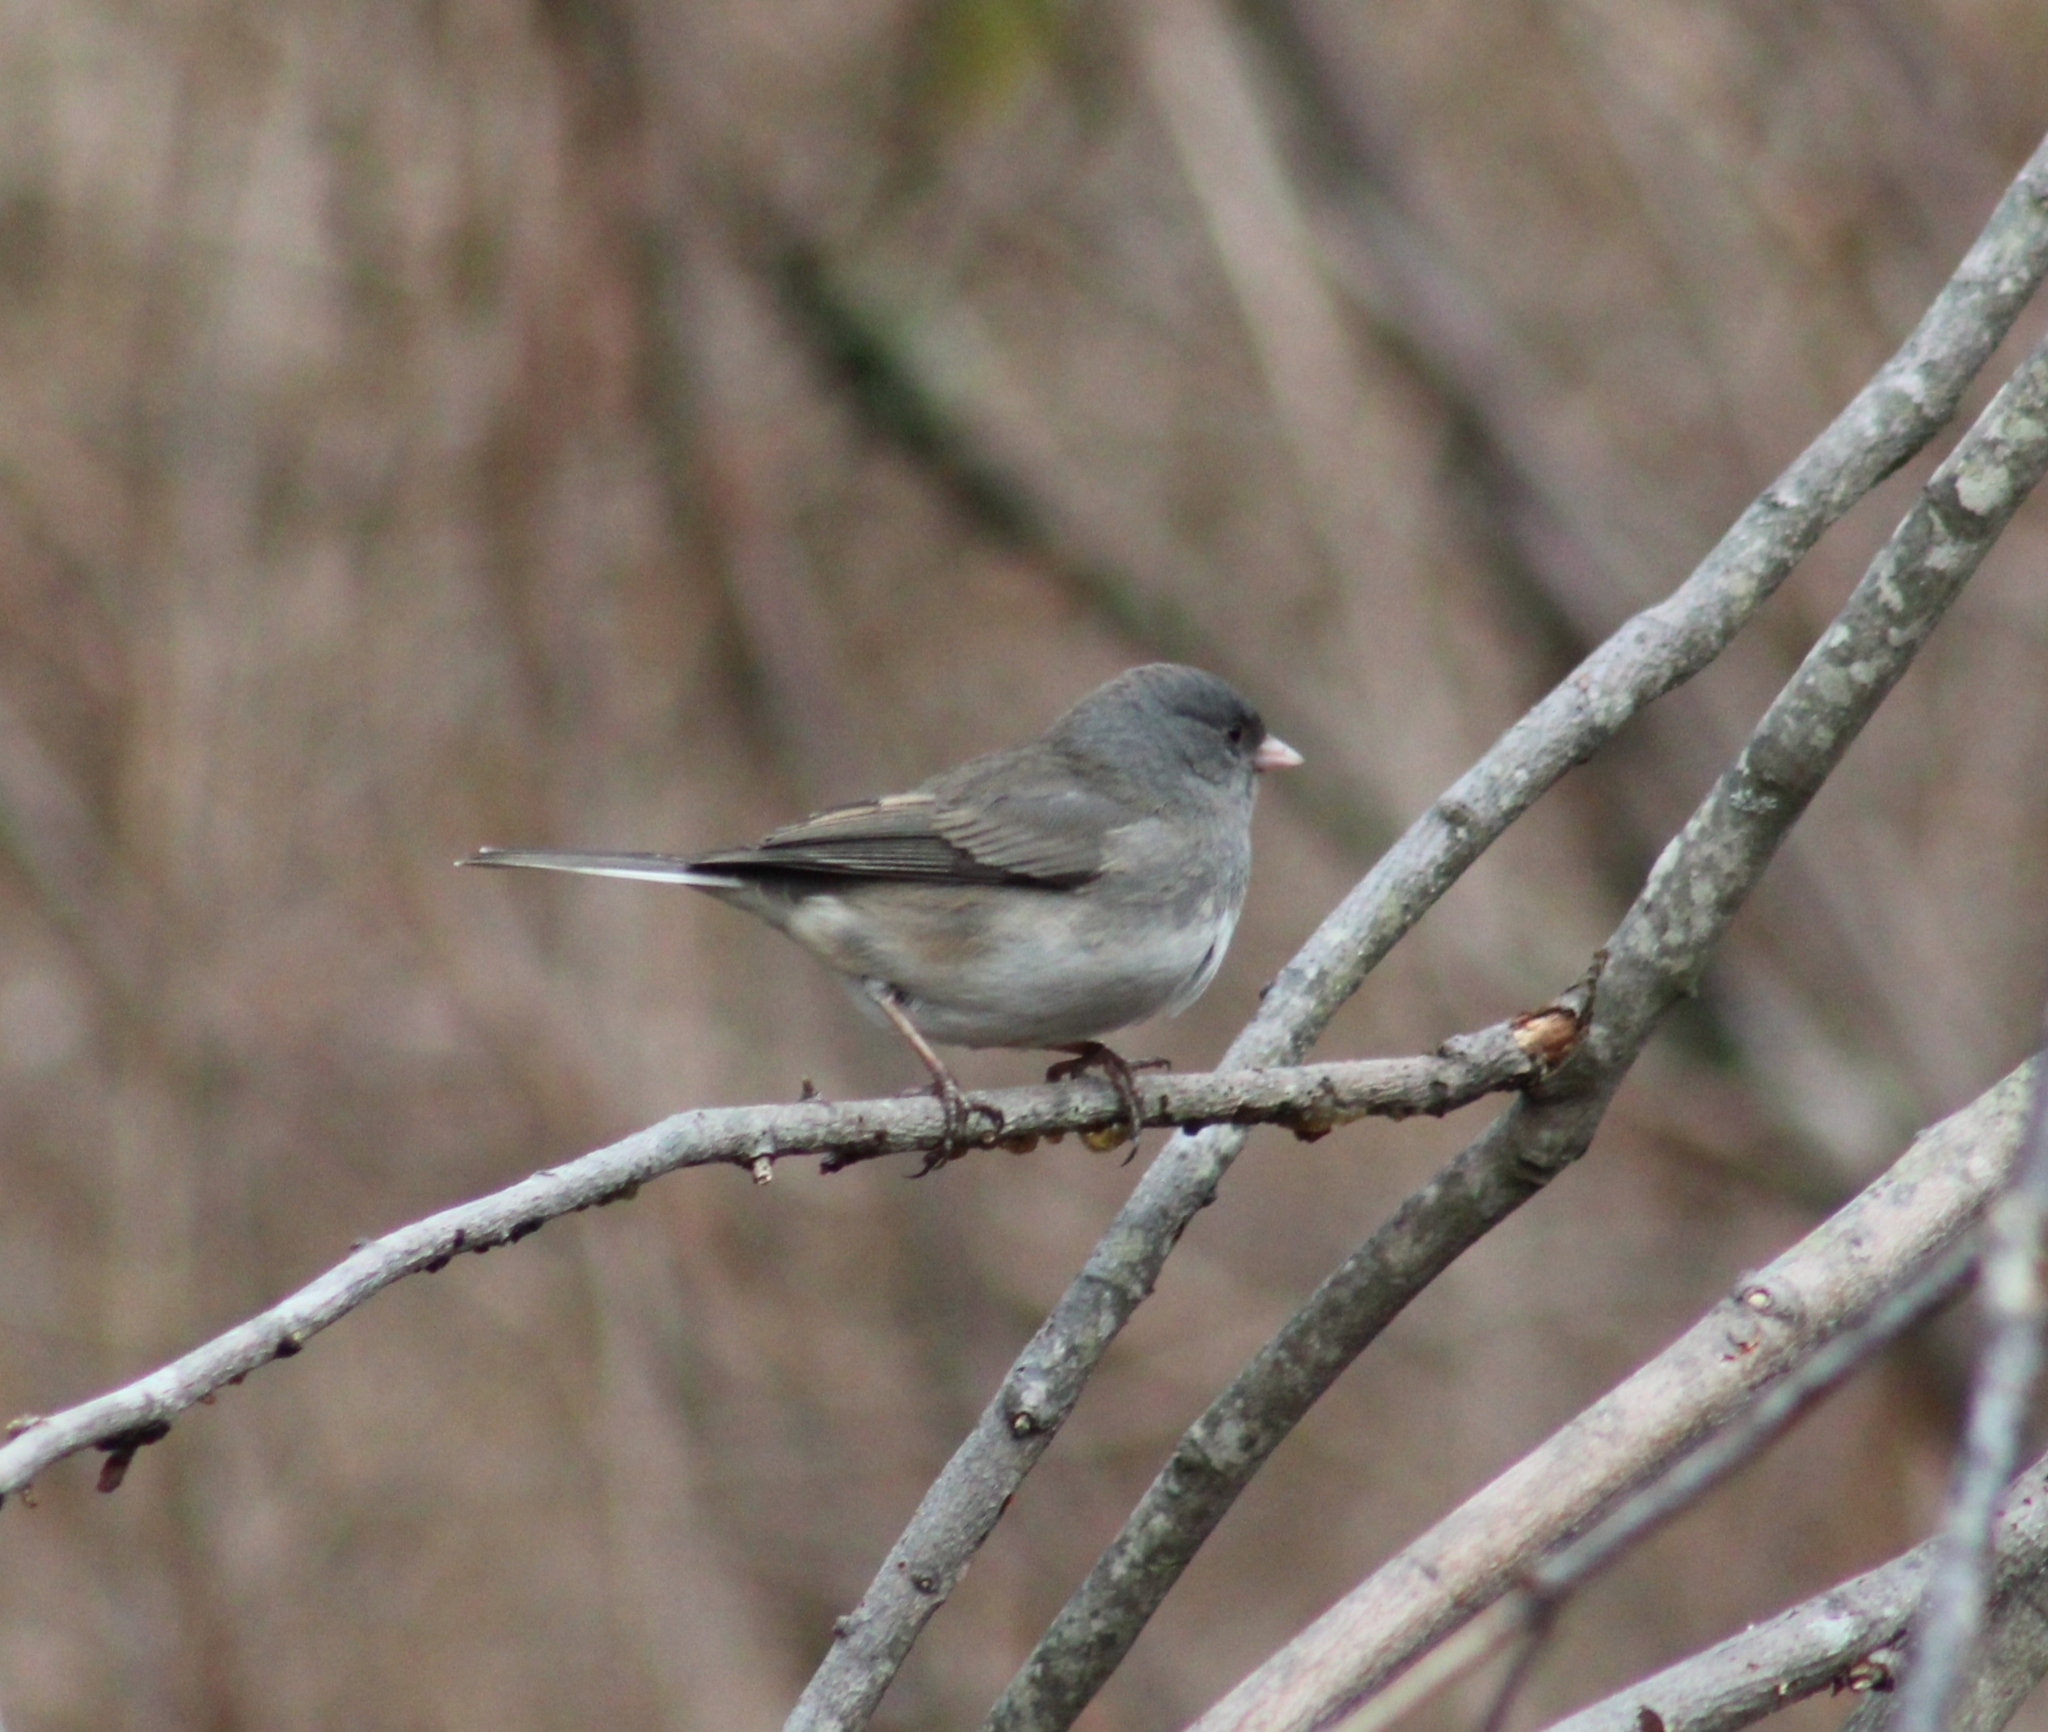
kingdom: Animalia
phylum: Chordata
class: Aves
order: Passeriformes
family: Passerellidae
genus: Junco
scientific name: Junco hyemalis
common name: Dark-eyed junco
